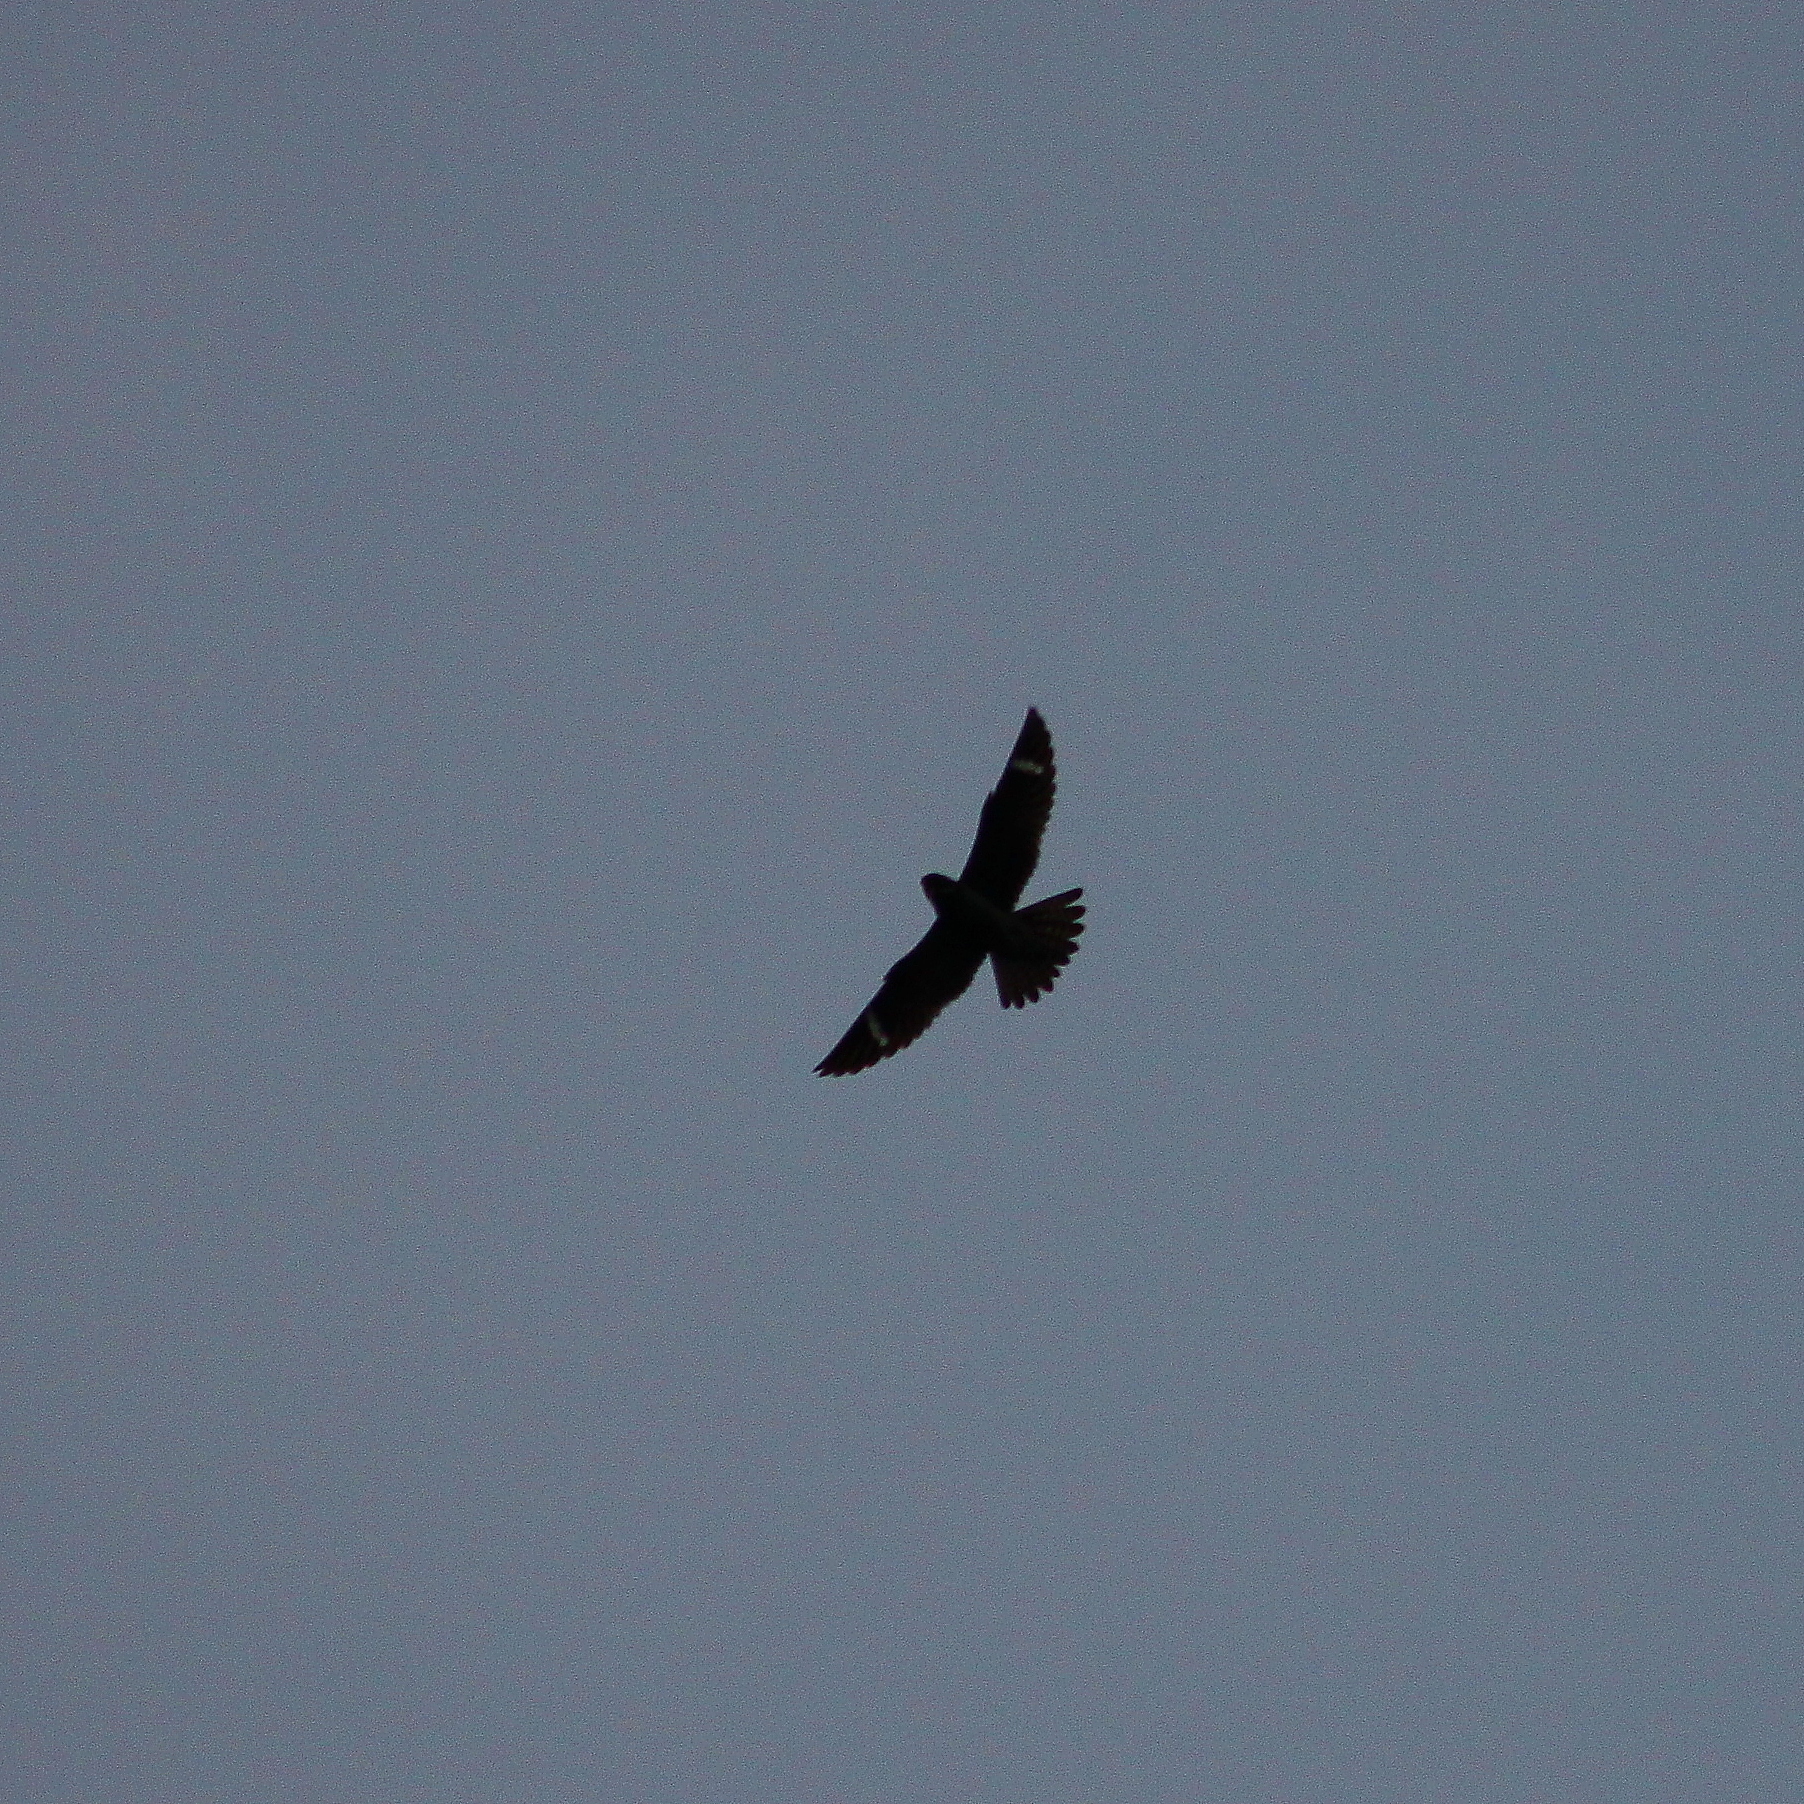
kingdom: Animalia
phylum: Chordata
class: Aves
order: Caprimulgiformes
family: Caprimulgidae
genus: Chordeiles
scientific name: Chordeiles minor
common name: Common nighthawk
